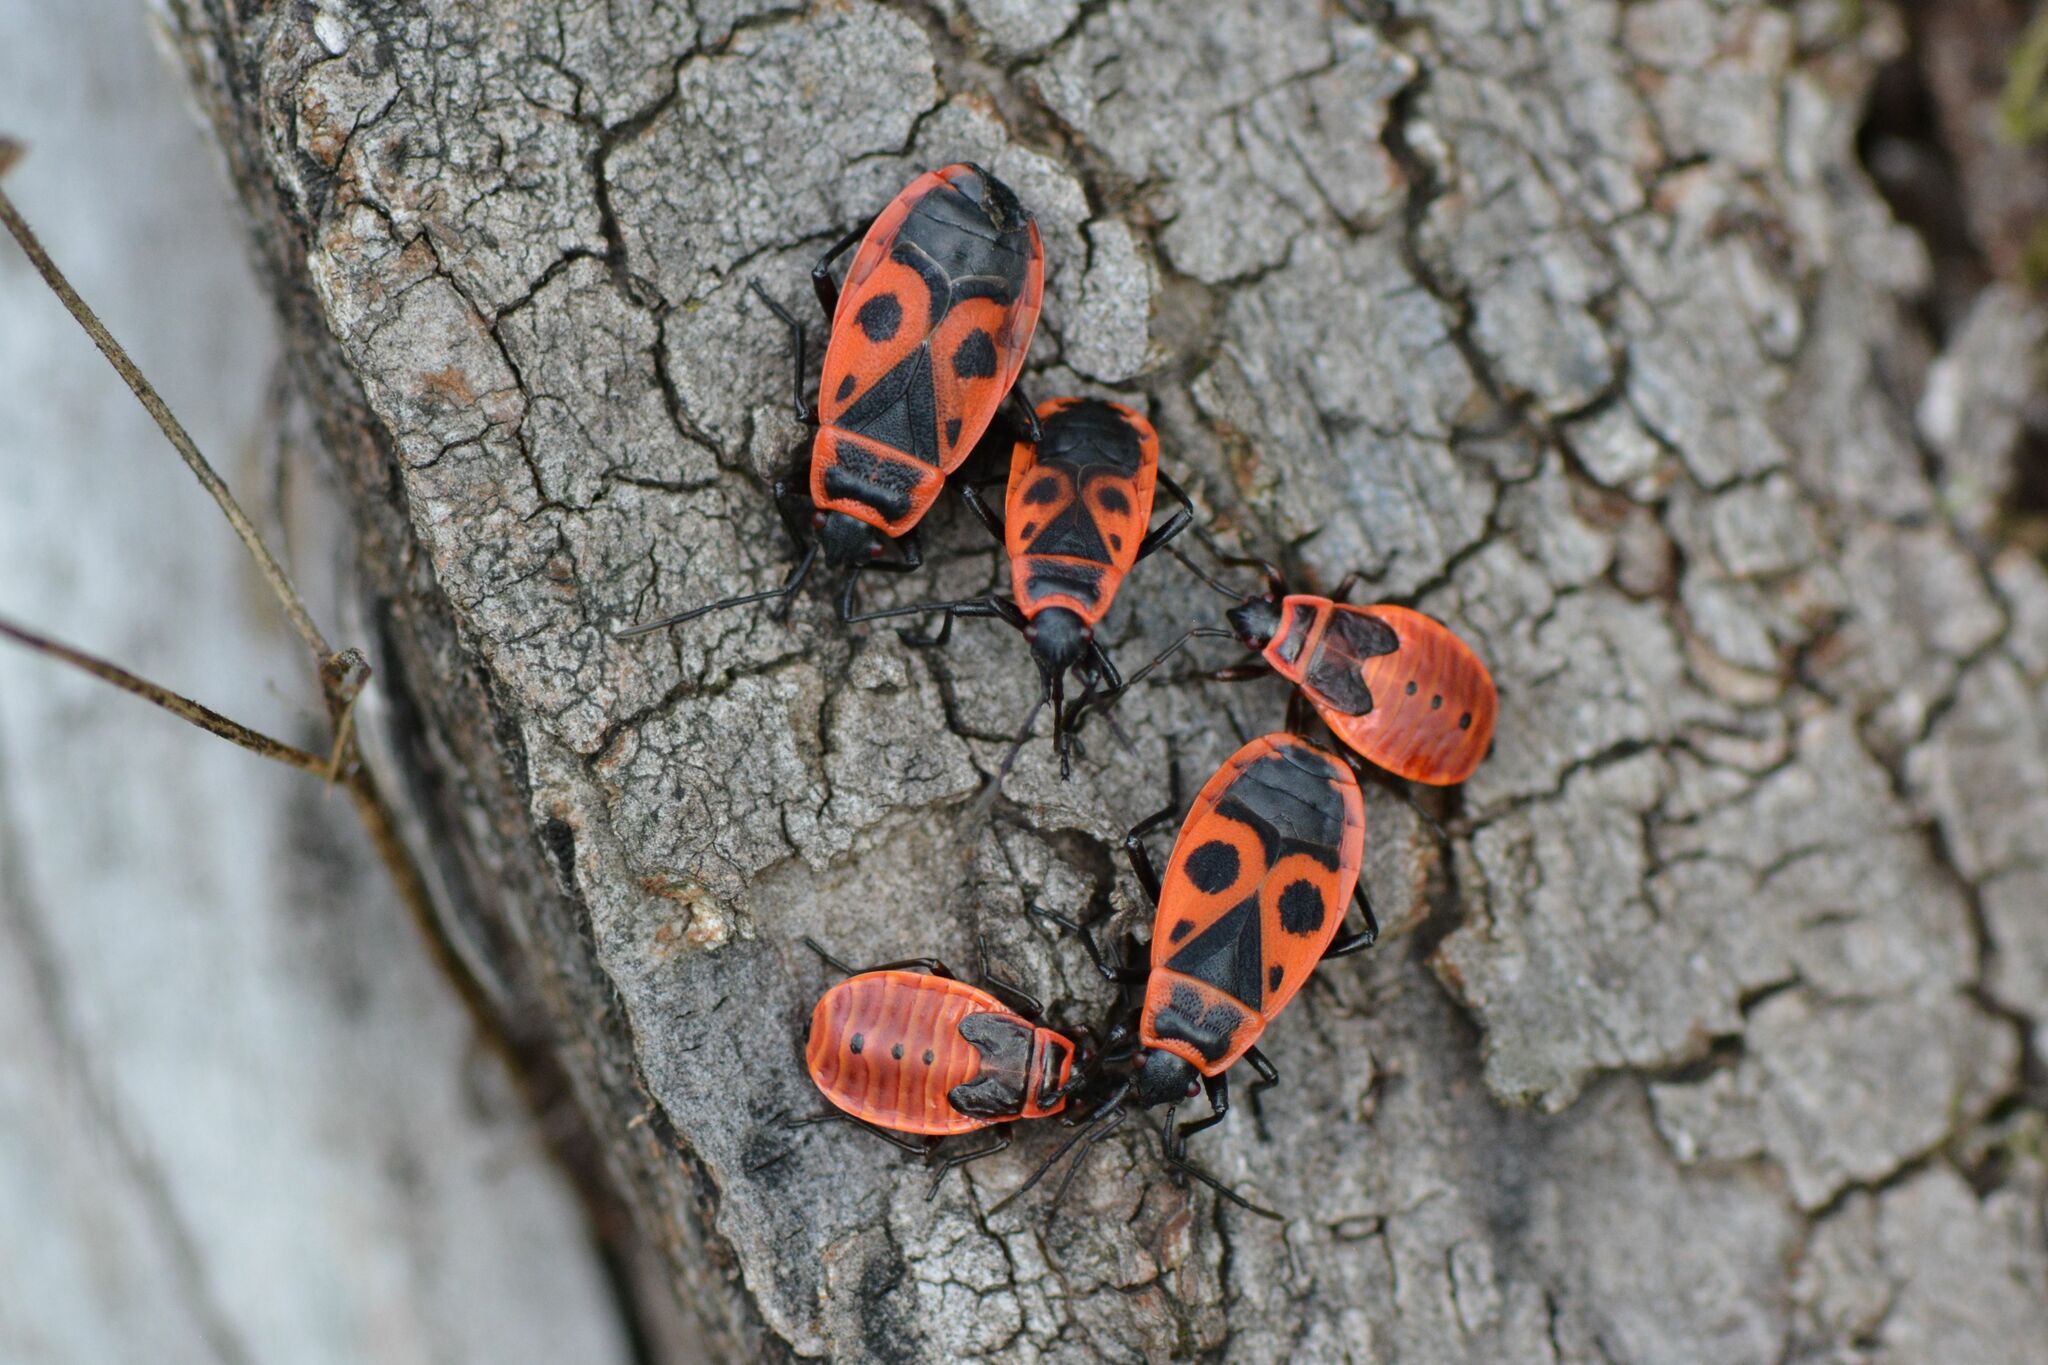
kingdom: Animalia
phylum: Arthropoda
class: Insecta
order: Hemiptera
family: Pyrrhocoridae
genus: Pyrrhocoris
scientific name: Pyrrhocoris apterus
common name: Firebug
